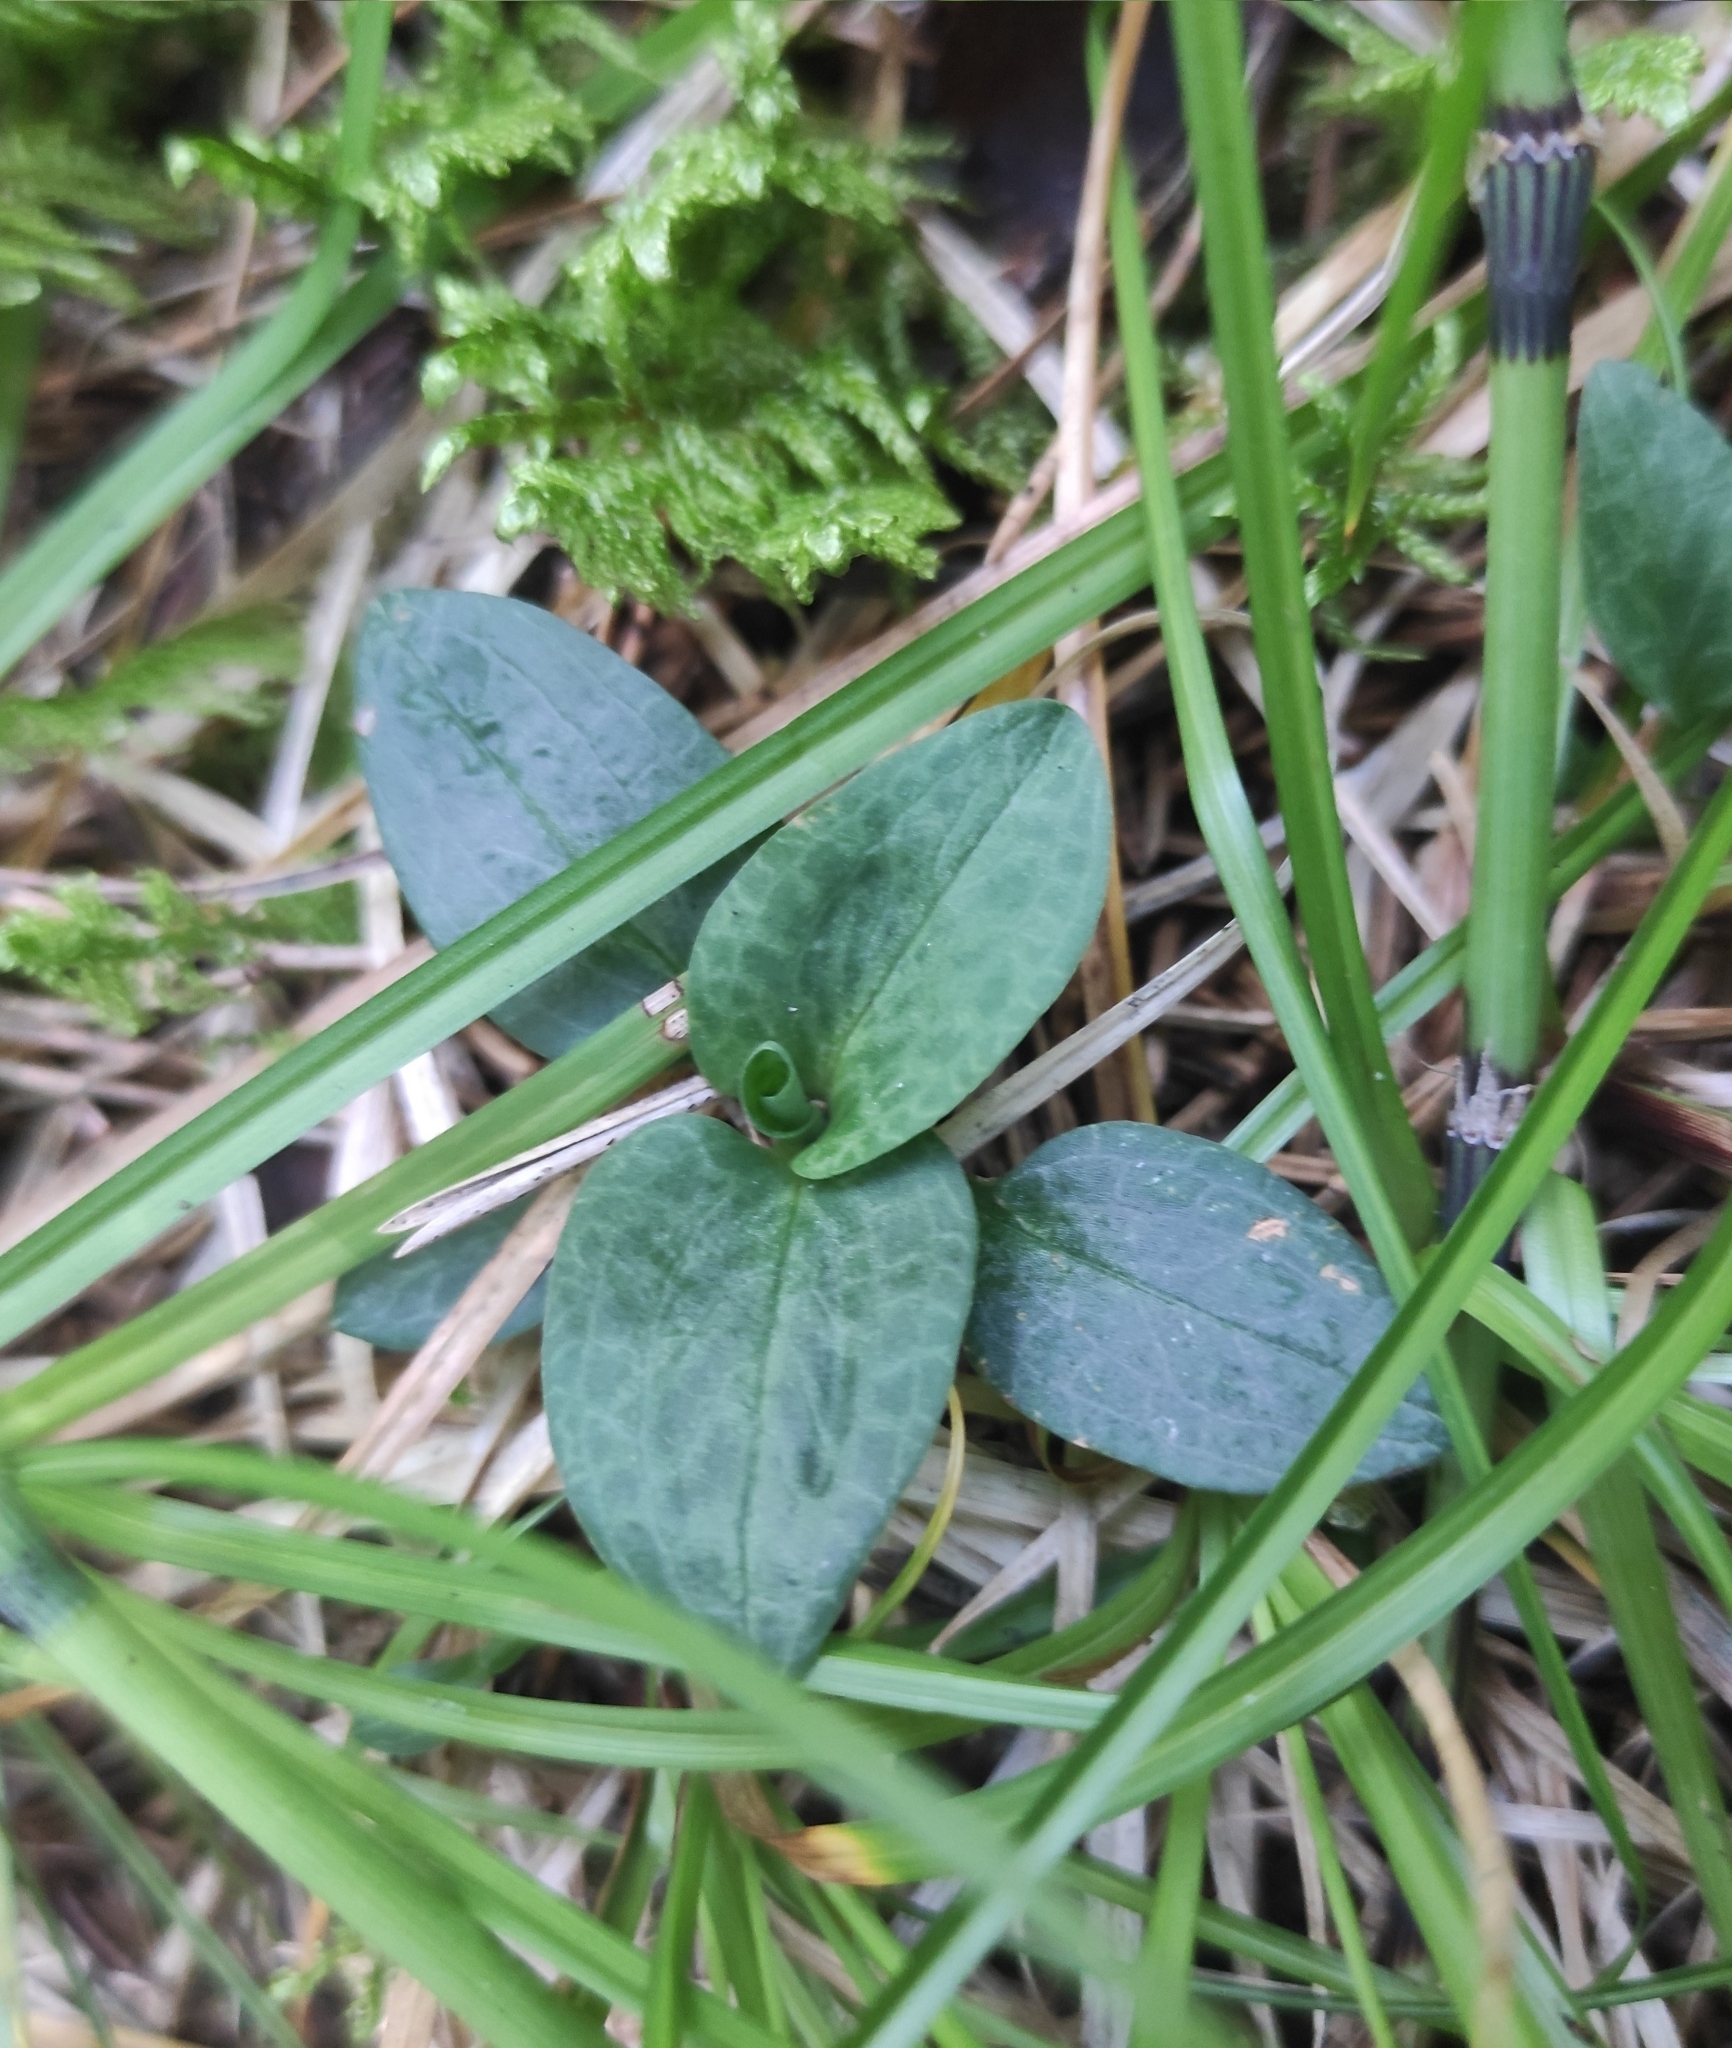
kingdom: Plantae
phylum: Tracheophyta
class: Liliopsida
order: Asparagales
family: Orchidaceae
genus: Goodyera
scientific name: Goodyera repens
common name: Creeping lady's-tresses
